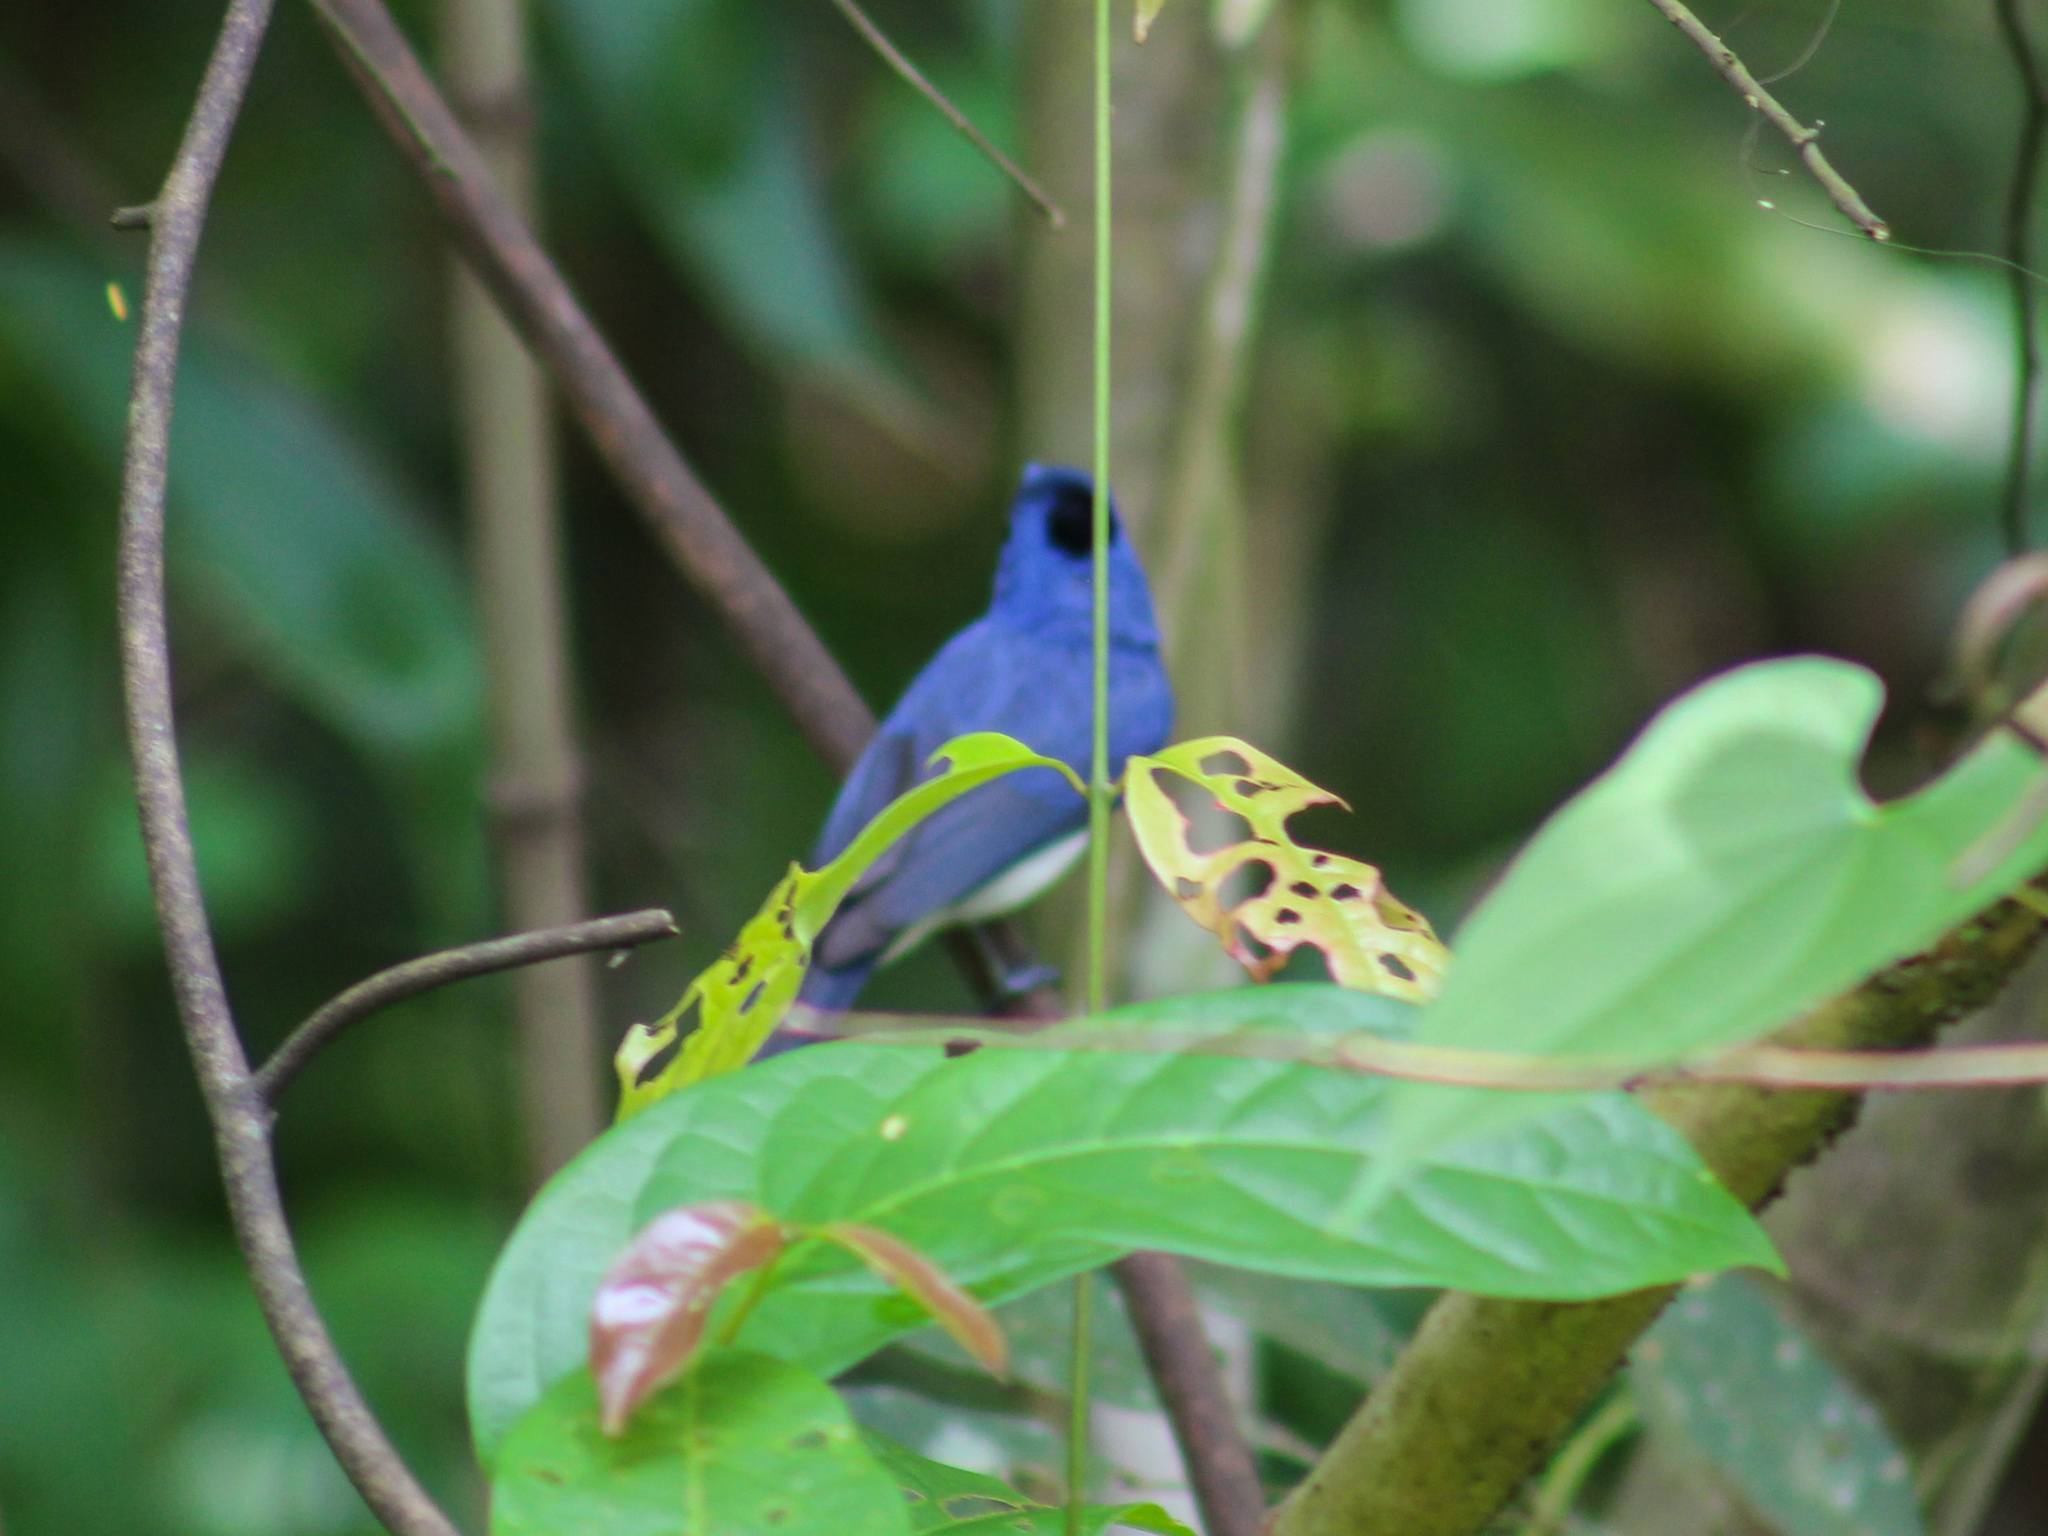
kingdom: Animalia
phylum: Chordata
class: Aves
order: Passeriformes
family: Monarchidae
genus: Hypothymis
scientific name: Hypothymis azurea
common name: Black-naped monarch
